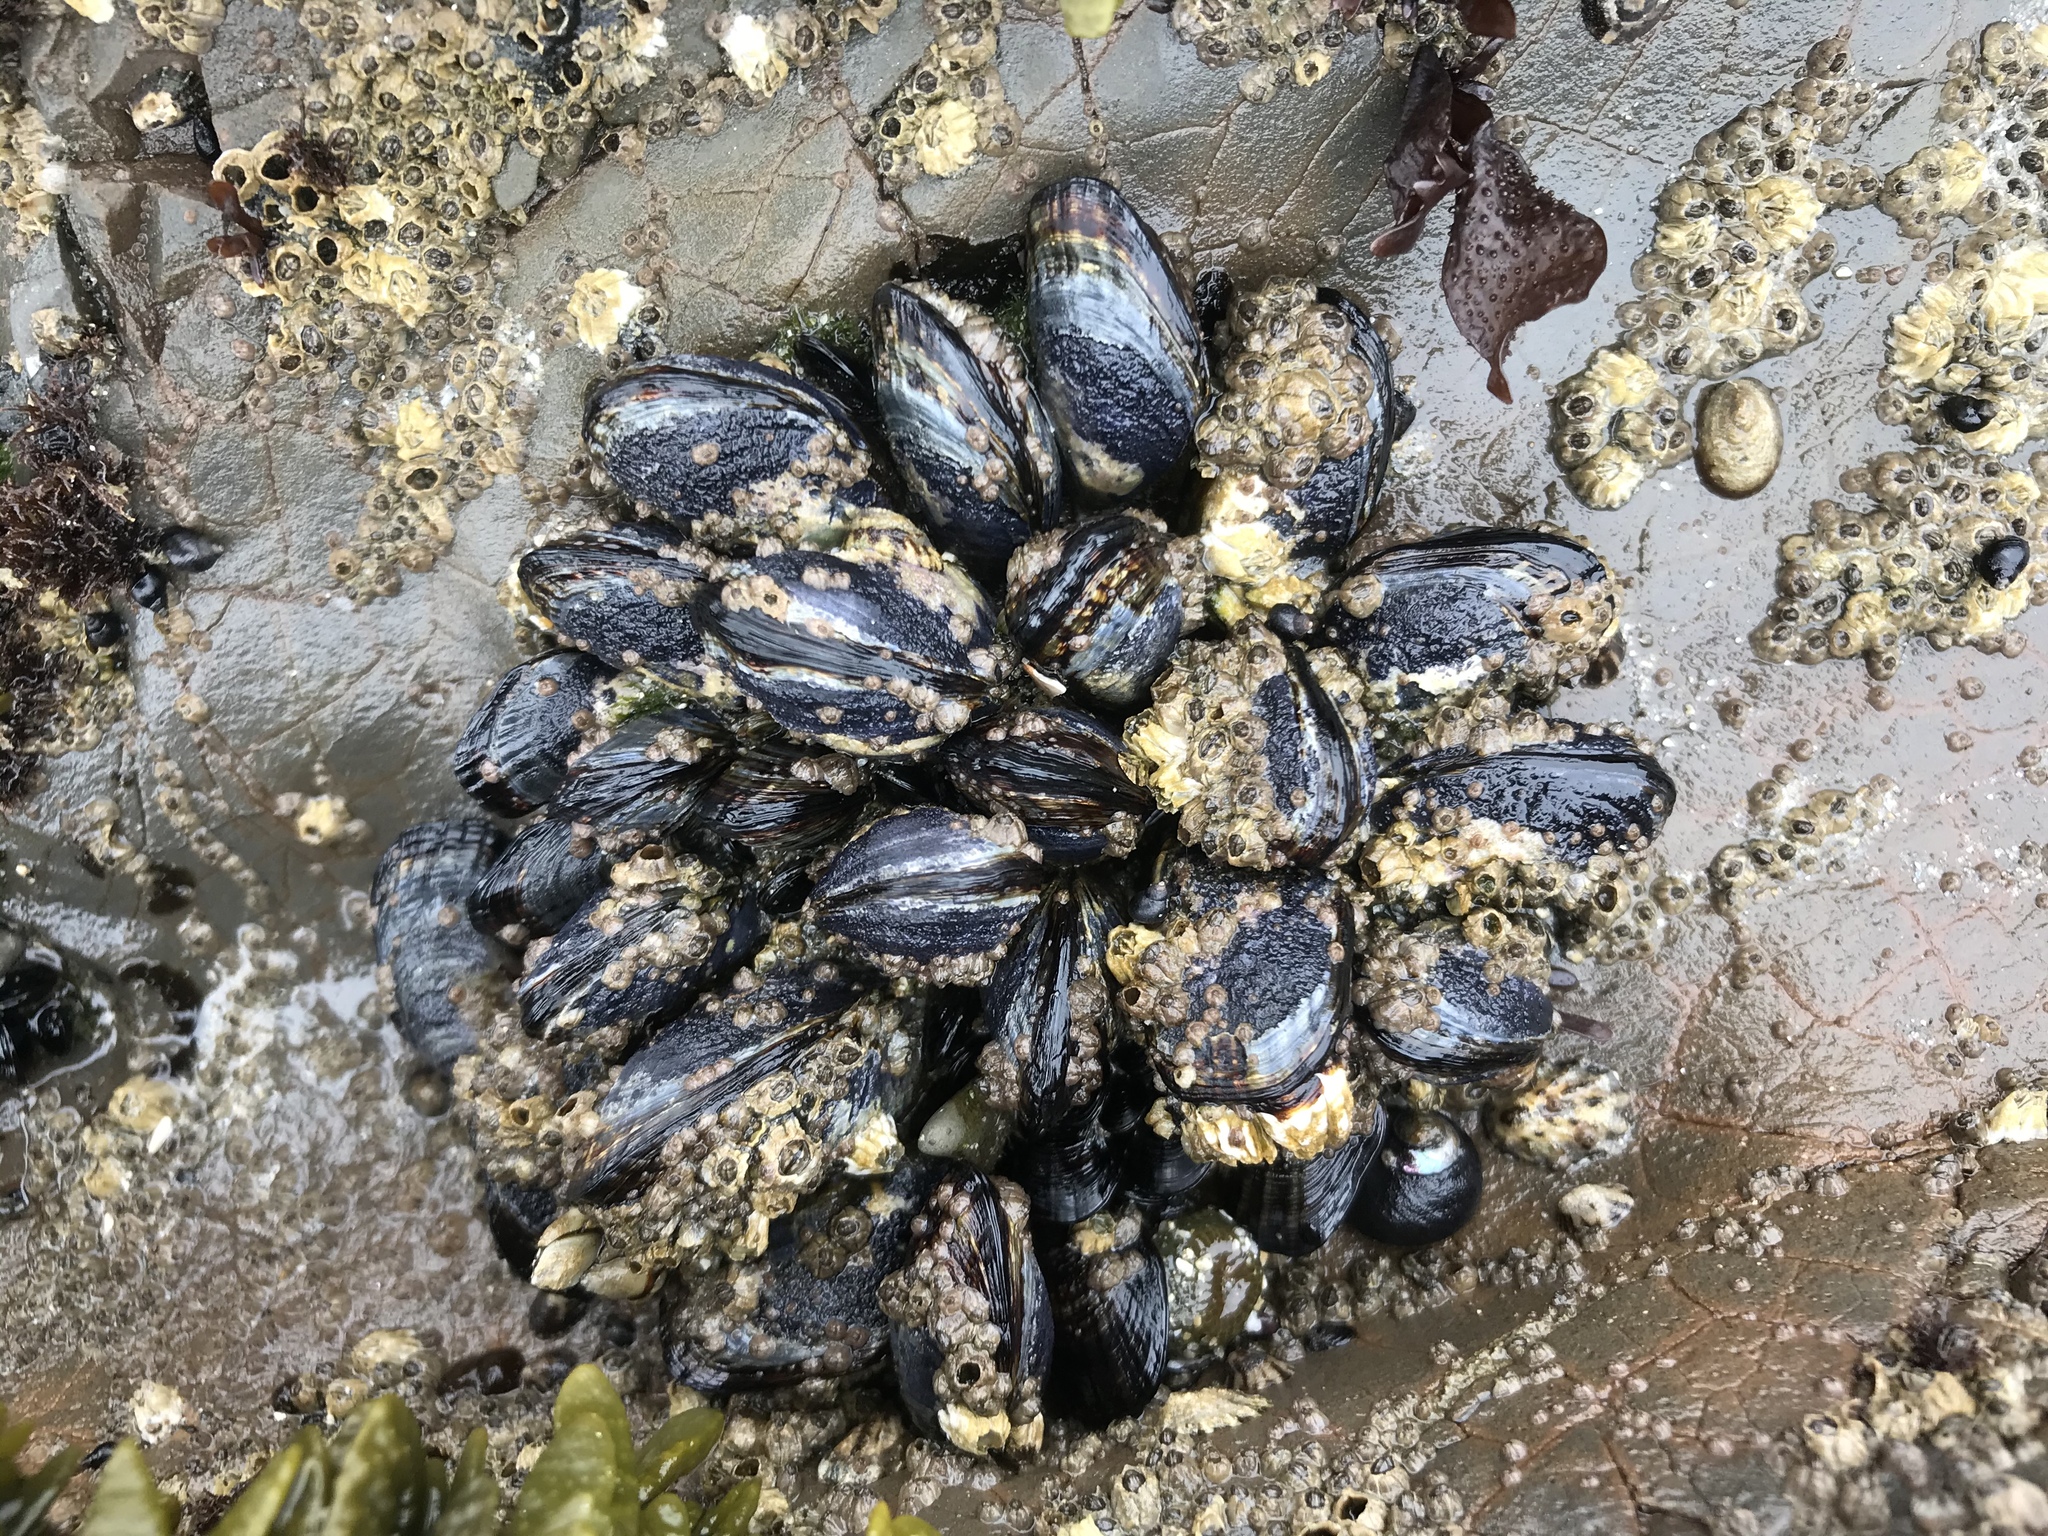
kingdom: Animalia
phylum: Mollusca
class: Bivalvia
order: Mytilida
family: Mytilidae
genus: Mytilus
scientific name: Mytilus californianus
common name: California mussel
